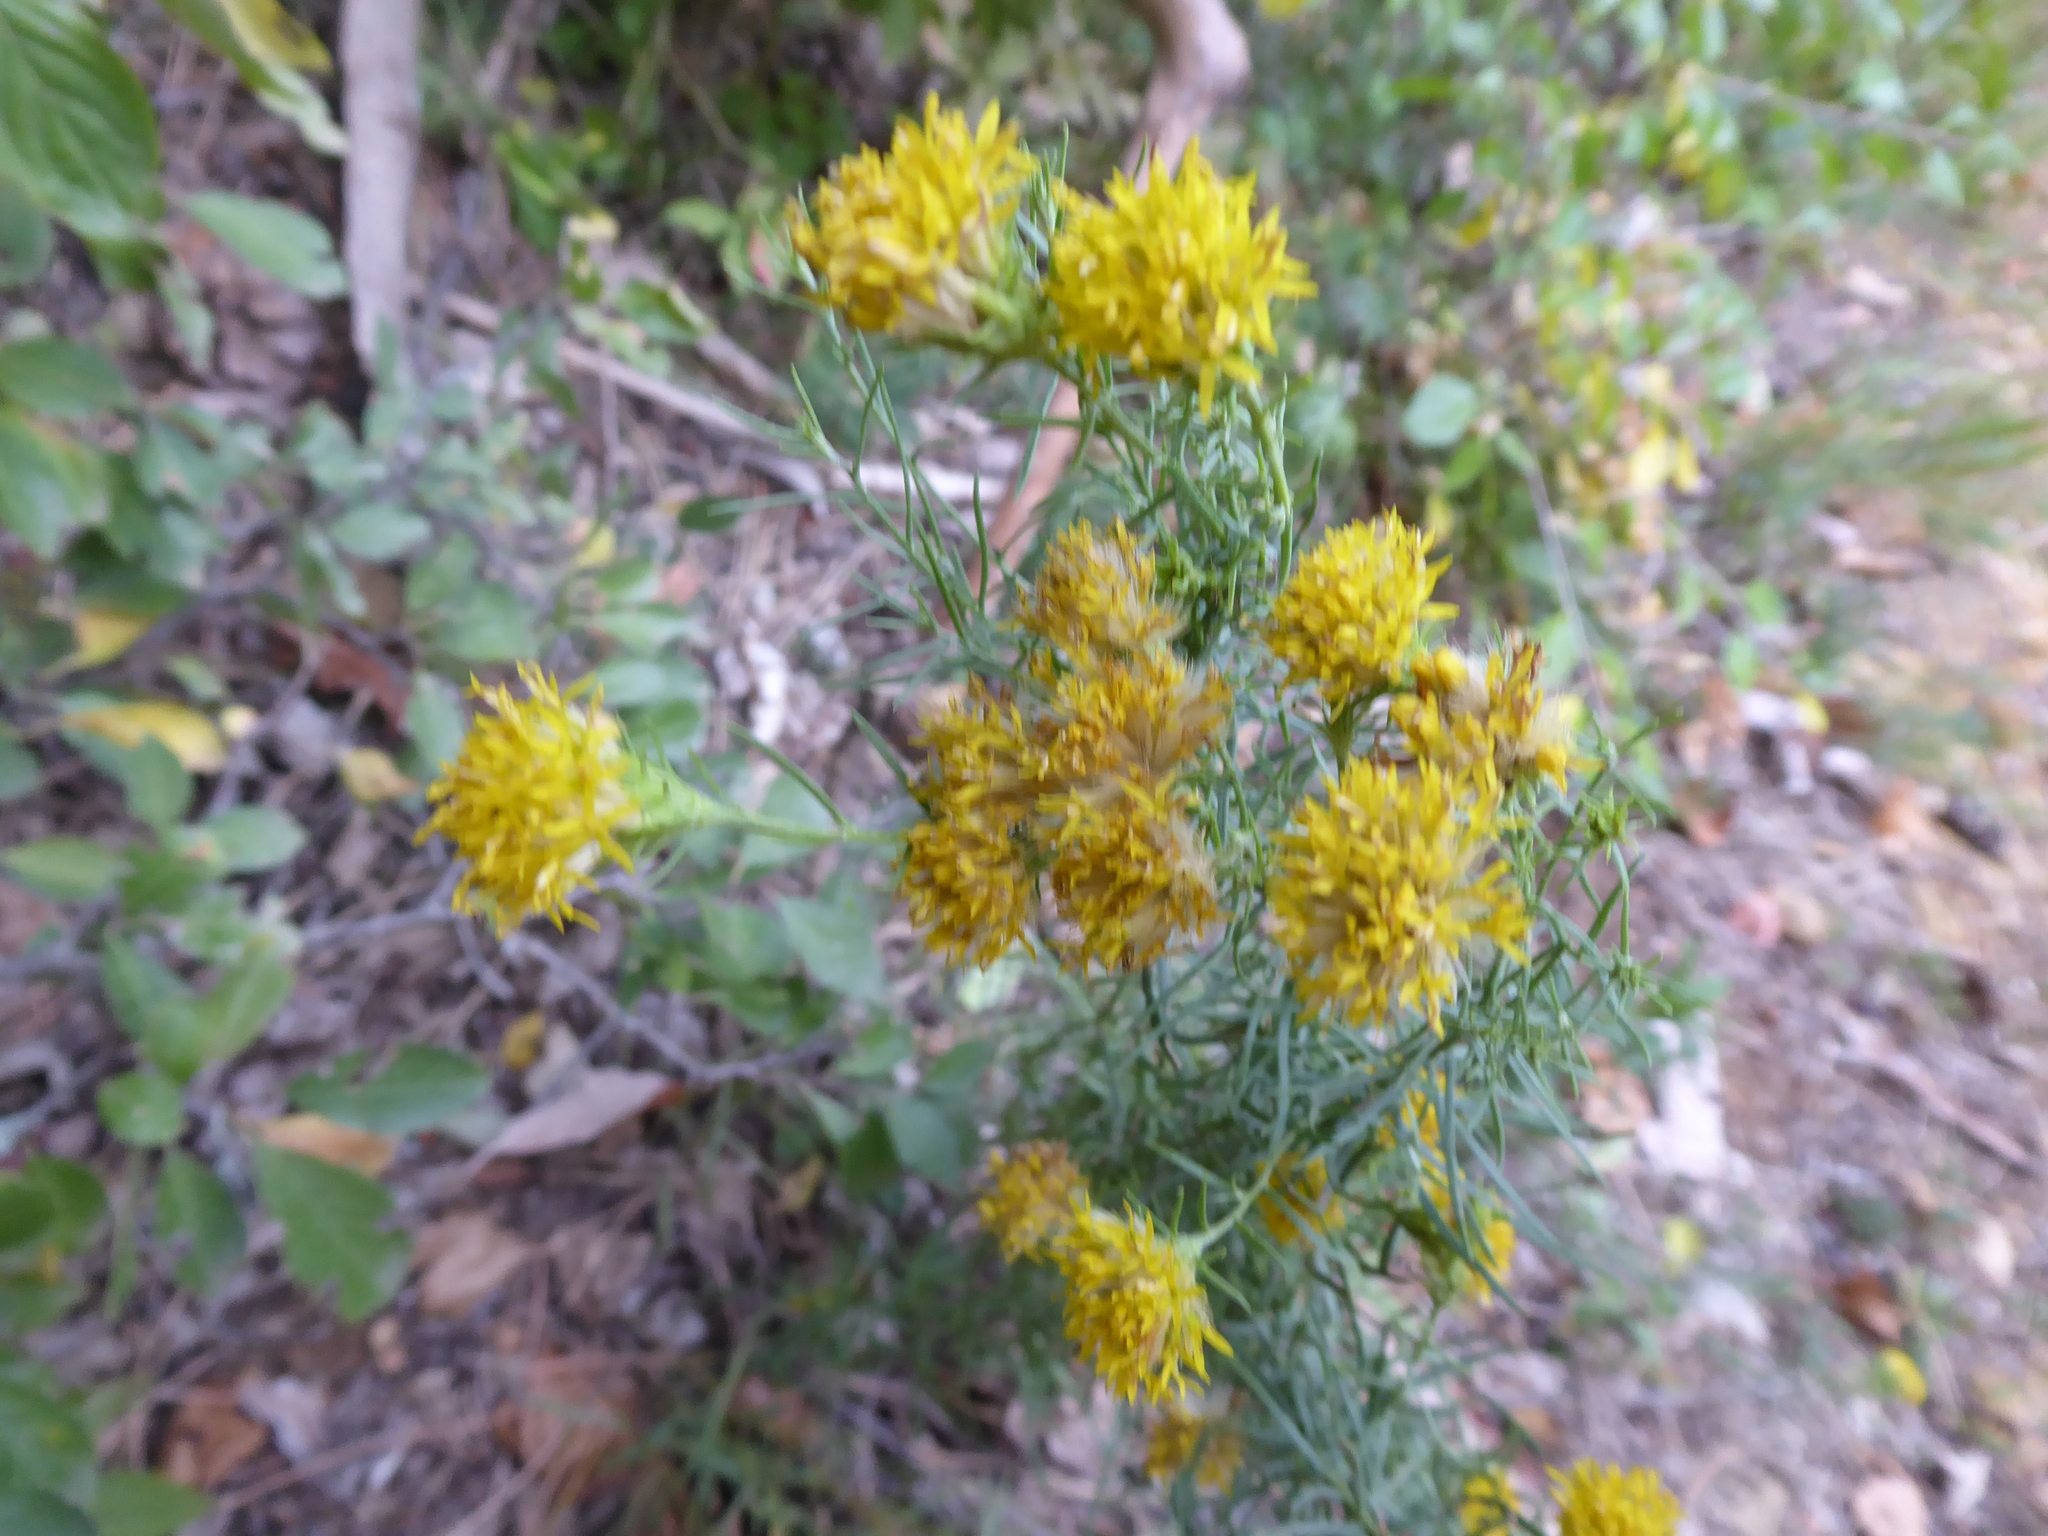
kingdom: Plantae
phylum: Tracheophyta
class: Magnoliopsida
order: Asterales
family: Asteraceae
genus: Galatella
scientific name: Galatella linosyris
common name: Goldilocks aster
